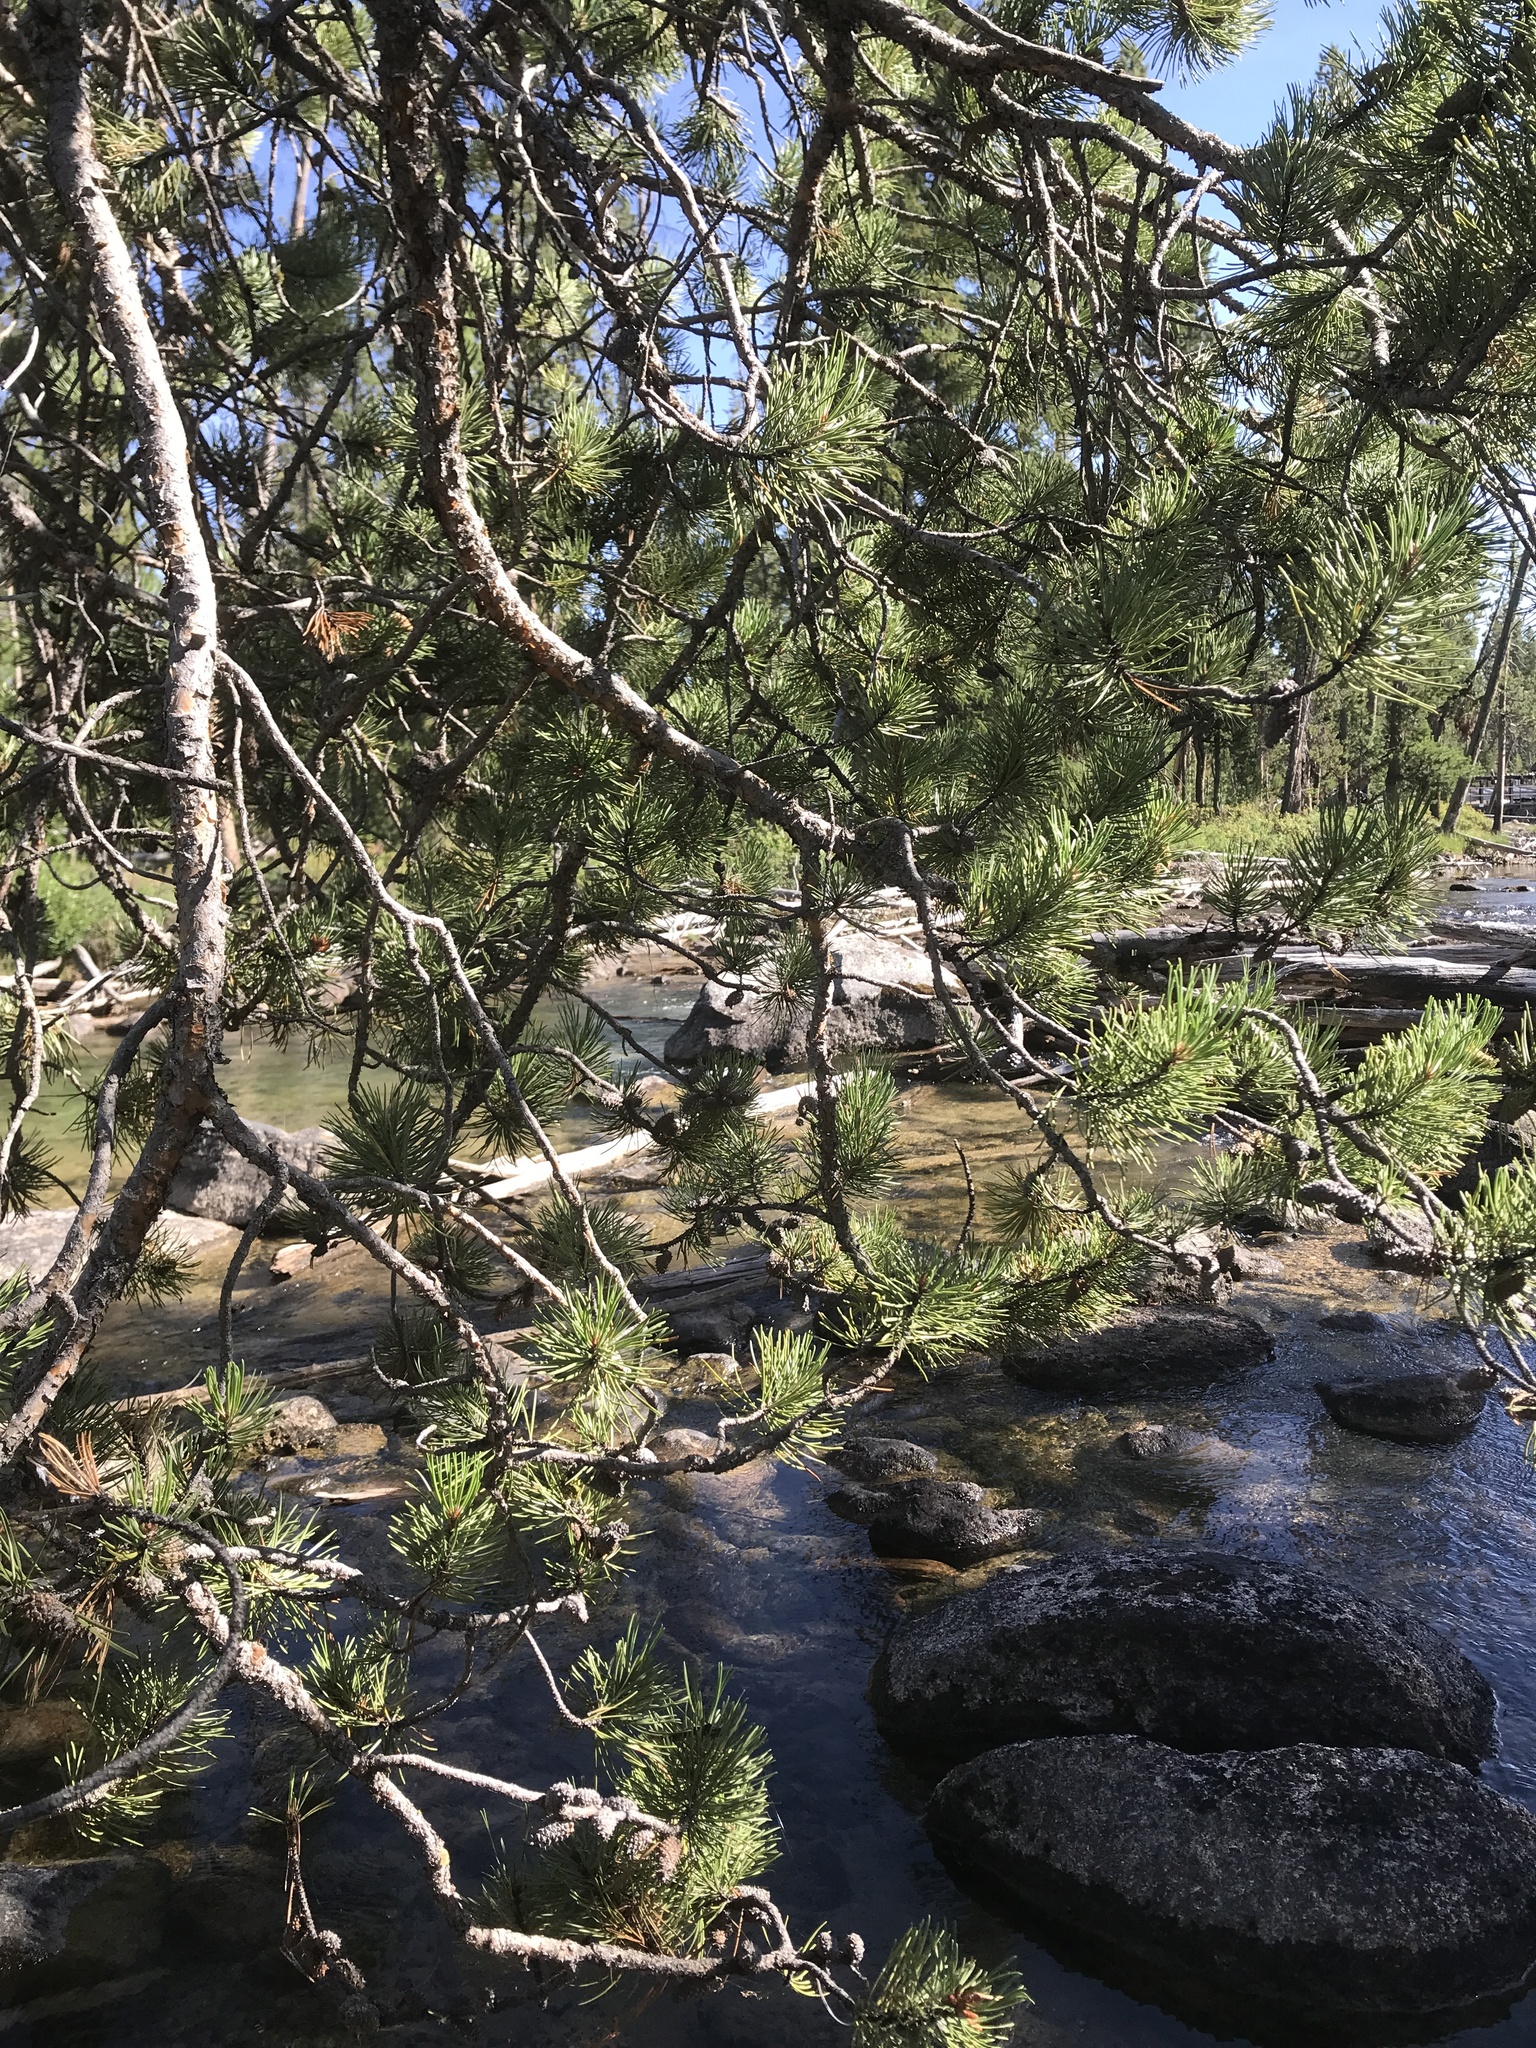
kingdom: Plantae
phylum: Tracheophyta
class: Pinopsida
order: Pinales
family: Pinaceae
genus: Pinus
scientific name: Pinus contorta
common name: Lodgepole pine
